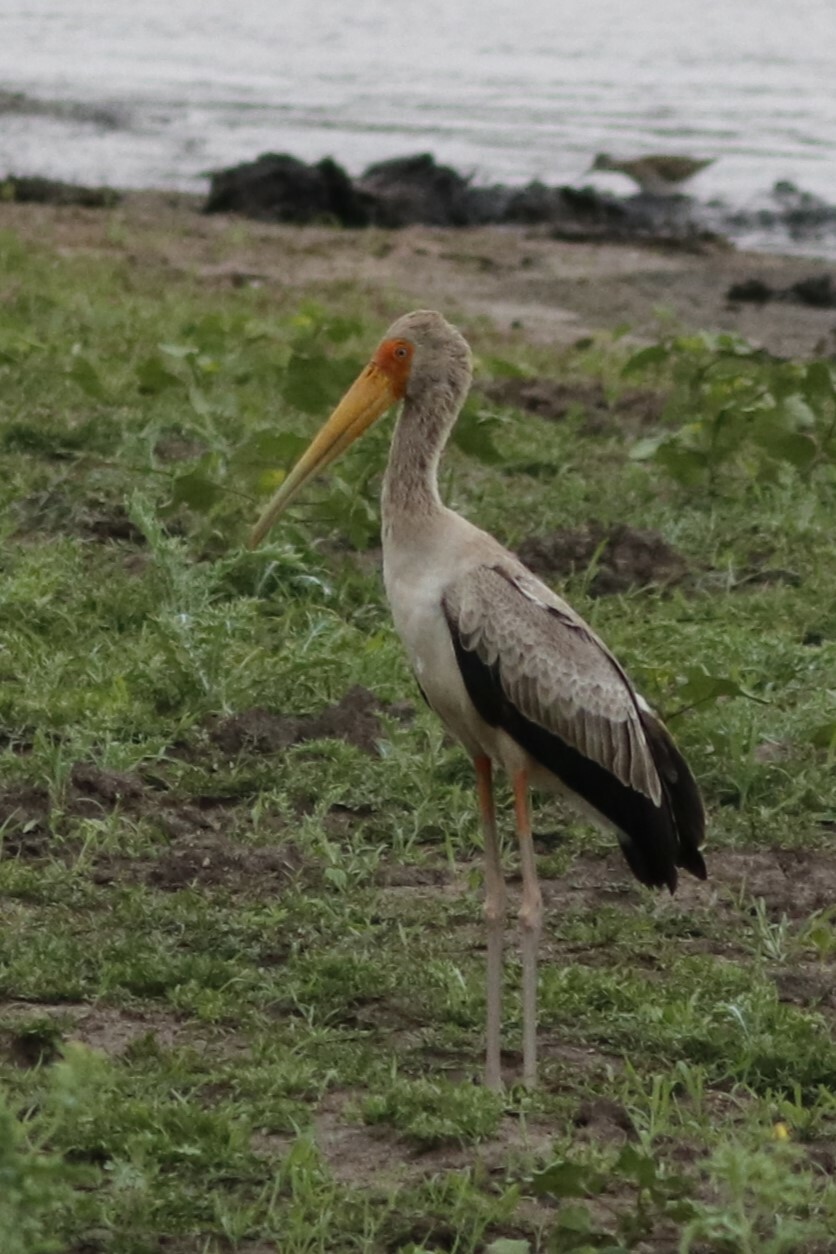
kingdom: Animalia
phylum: Chordata
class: Aves
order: Ciconiiformes
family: Ciconiidae
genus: Mycteria
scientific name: Mycteria ibis
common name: Yellow-billed stork
